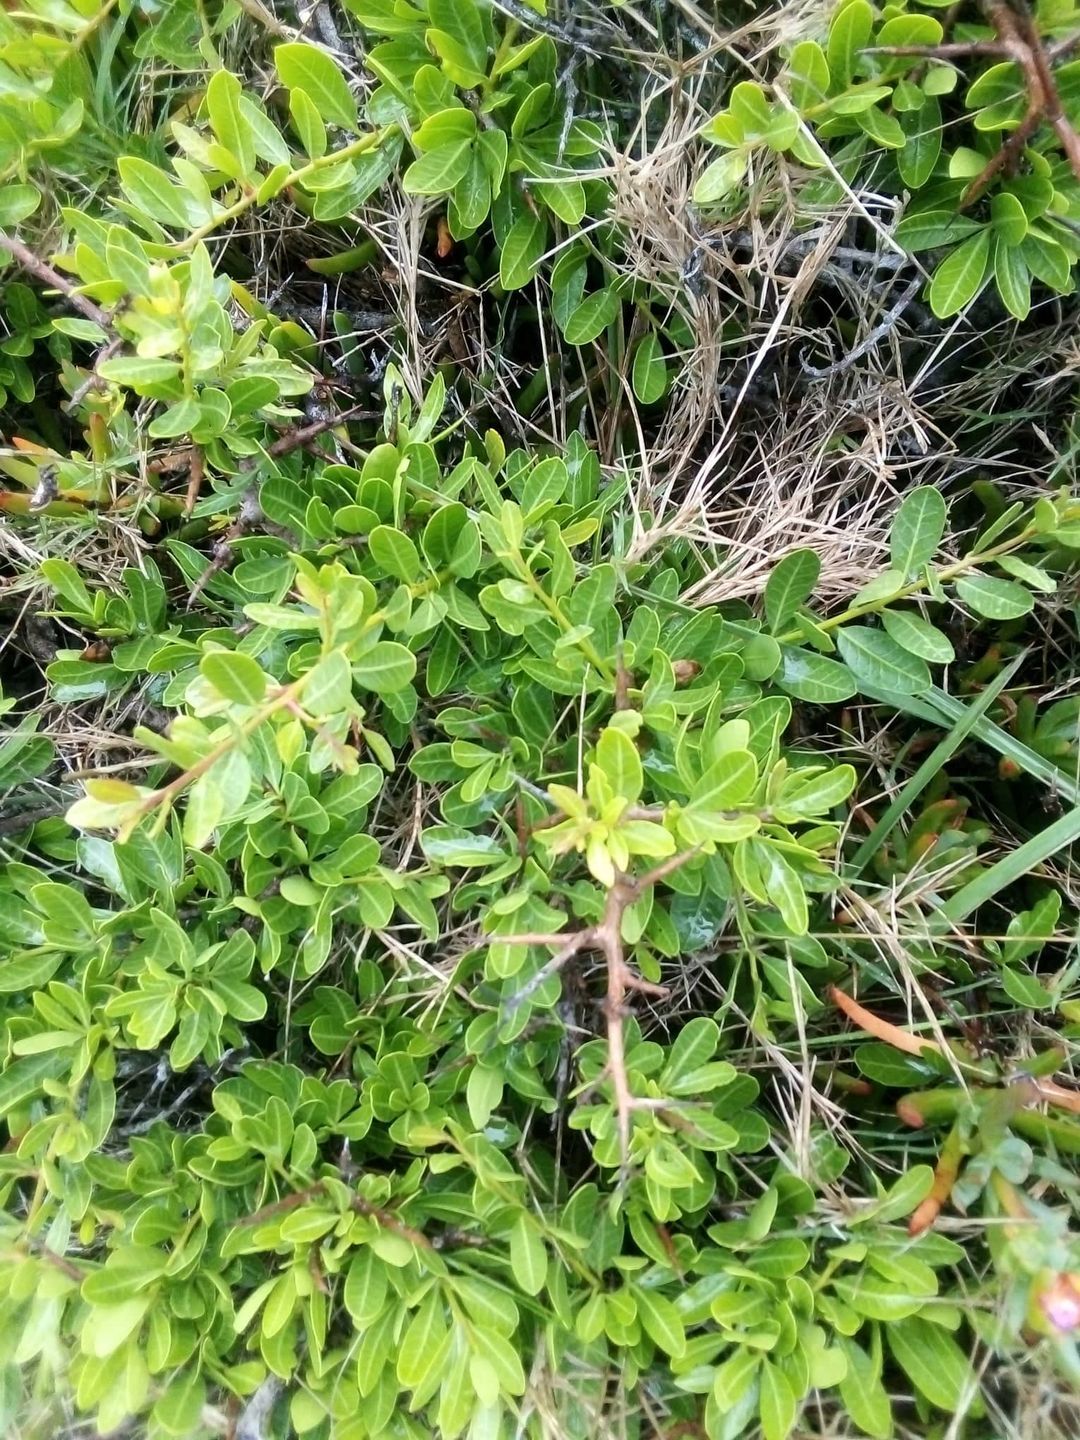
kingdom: Plantae
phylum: Tracheophyta
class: Magnoliopsida
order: Sapindales
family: Anacardiaceae
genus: Schinus
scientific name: Schinus engleri
